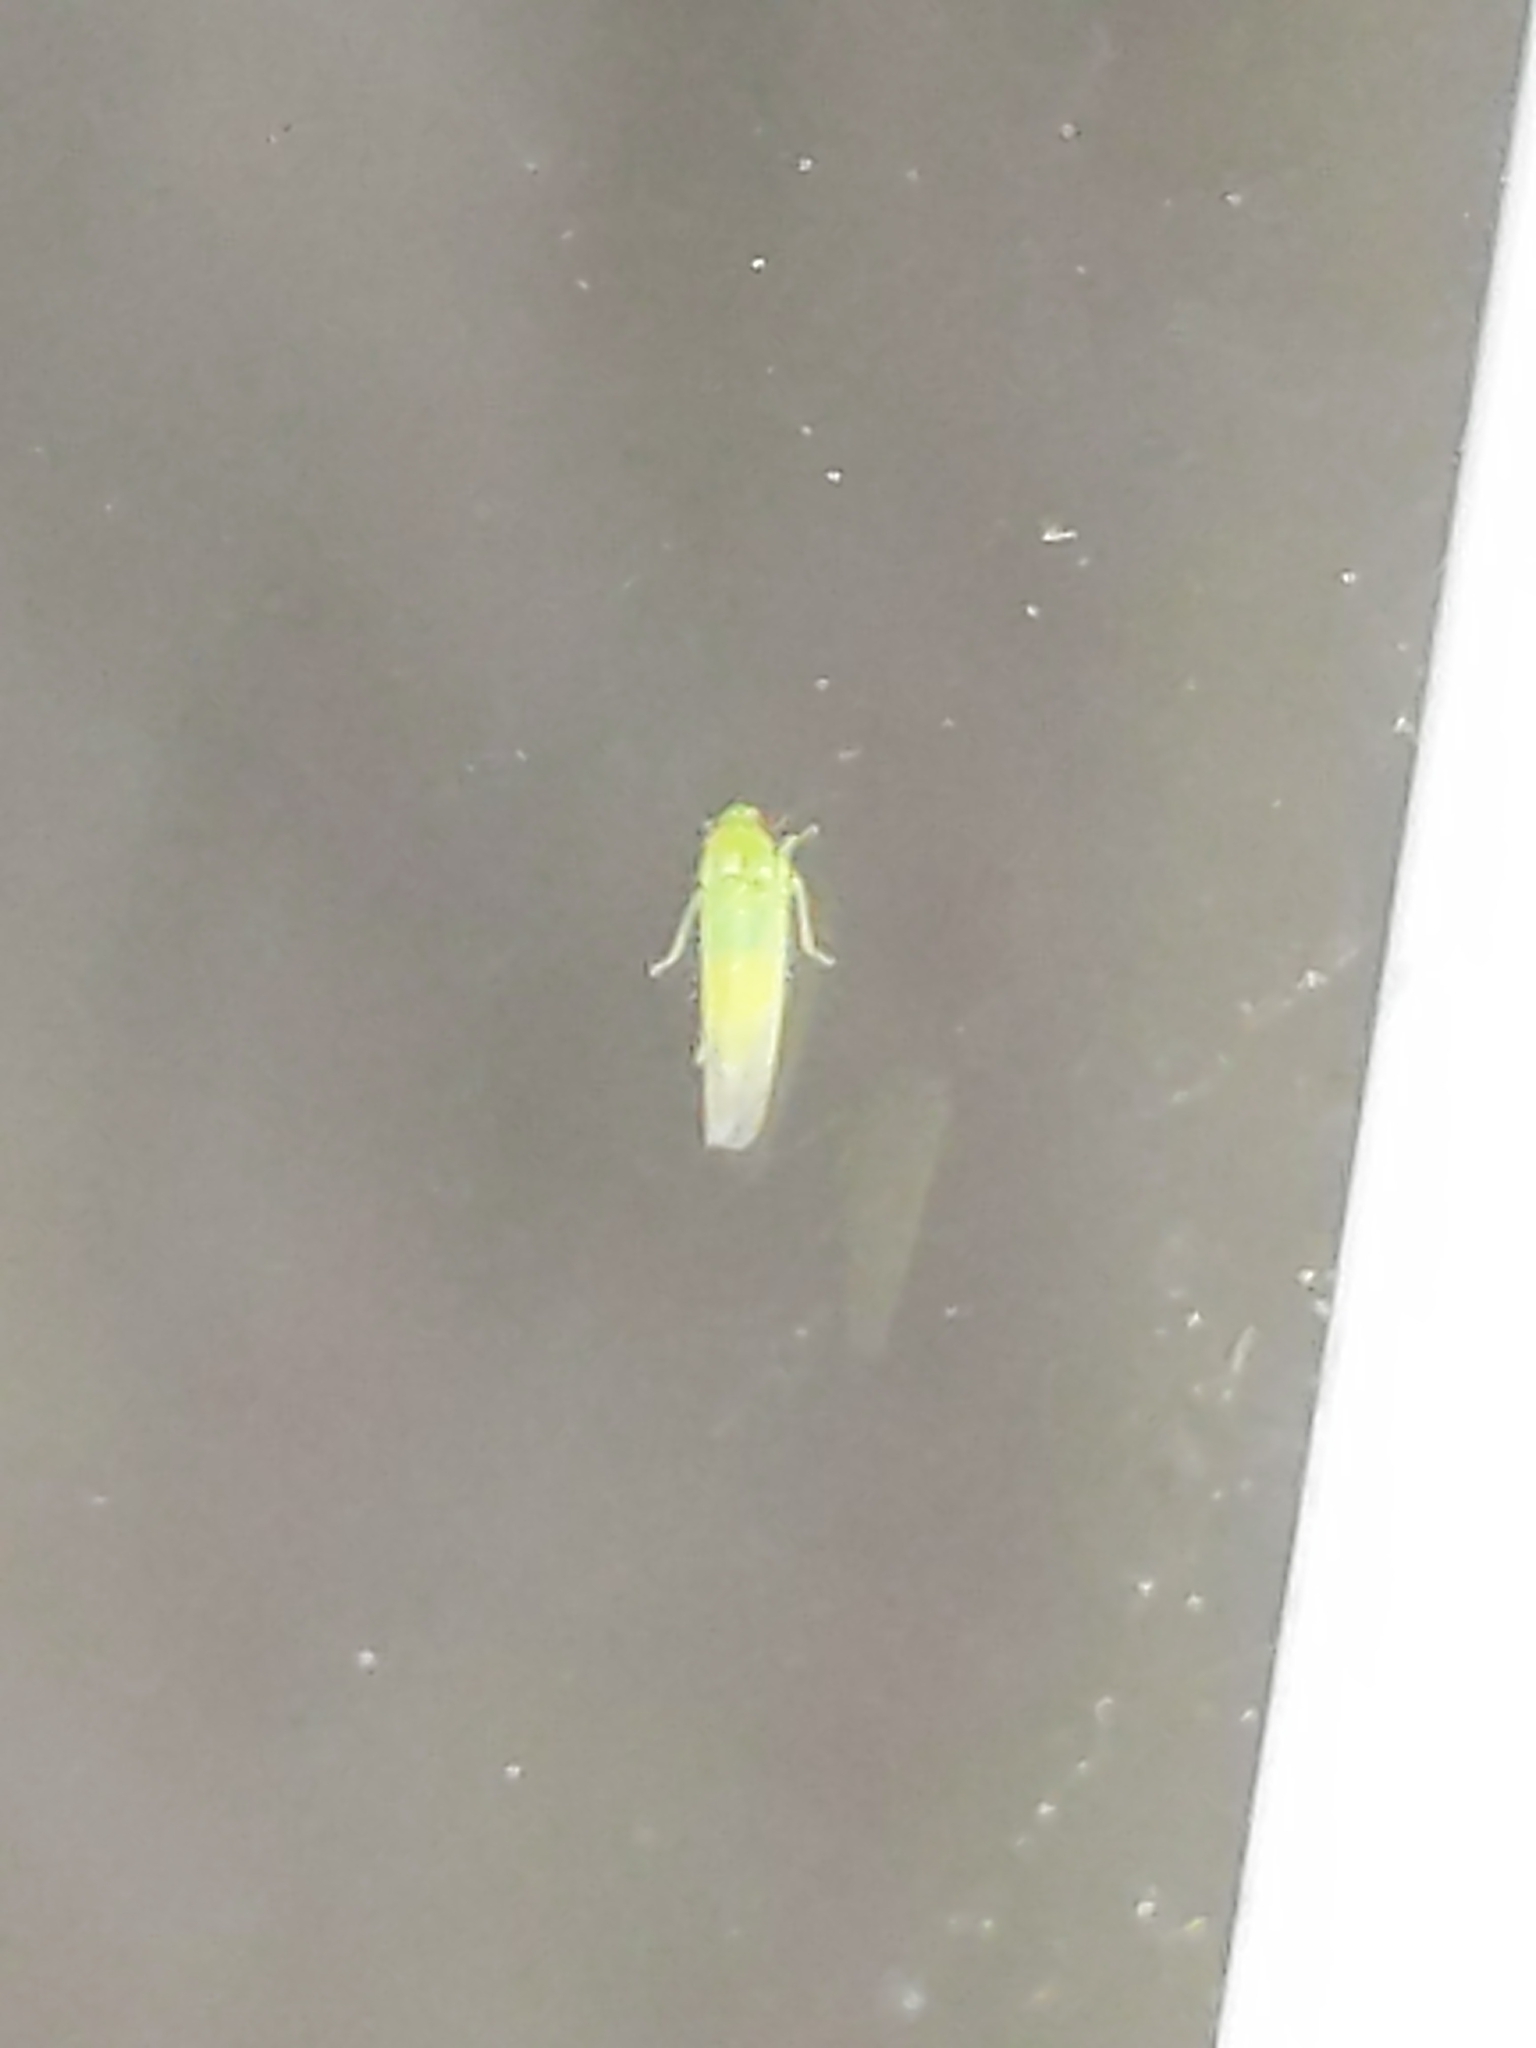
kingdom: Animalia
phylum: Arthropoda
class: Insecta
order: Hemiptera
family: Cicadellidae
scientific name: Cicadellidae
